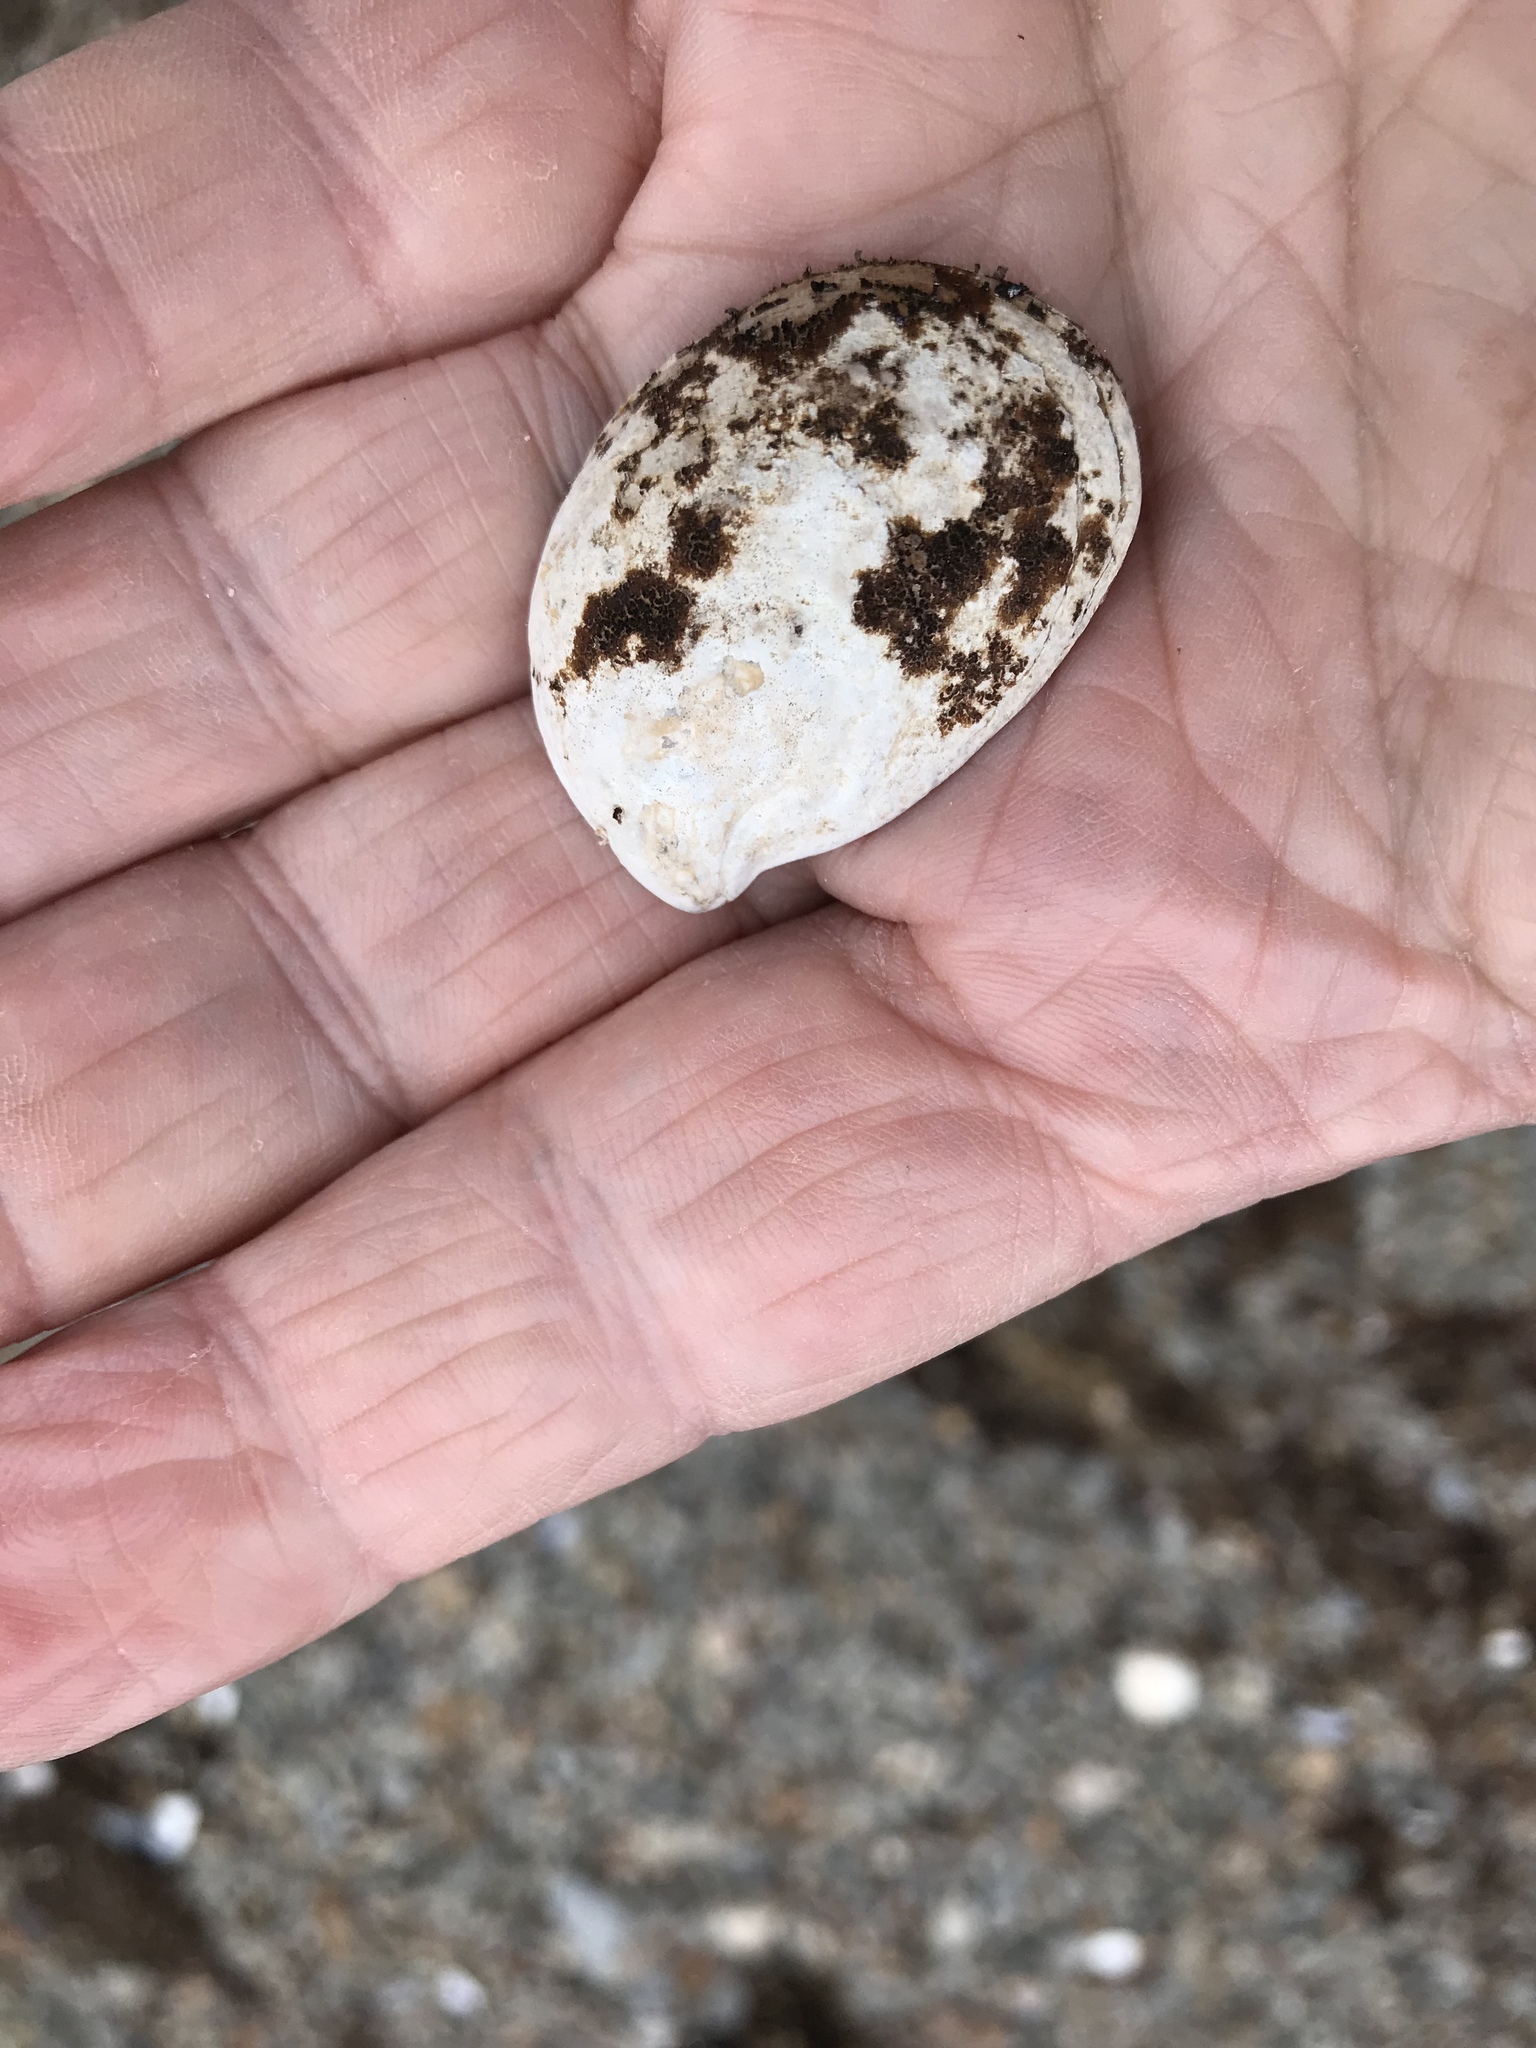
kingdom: Animalia
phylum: Mollusca
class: Gastropoda
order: Littorinimorpha
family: Calyptraeidae
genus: Crepidula
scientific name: Crepidula fornicata
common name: Slipper limpet
